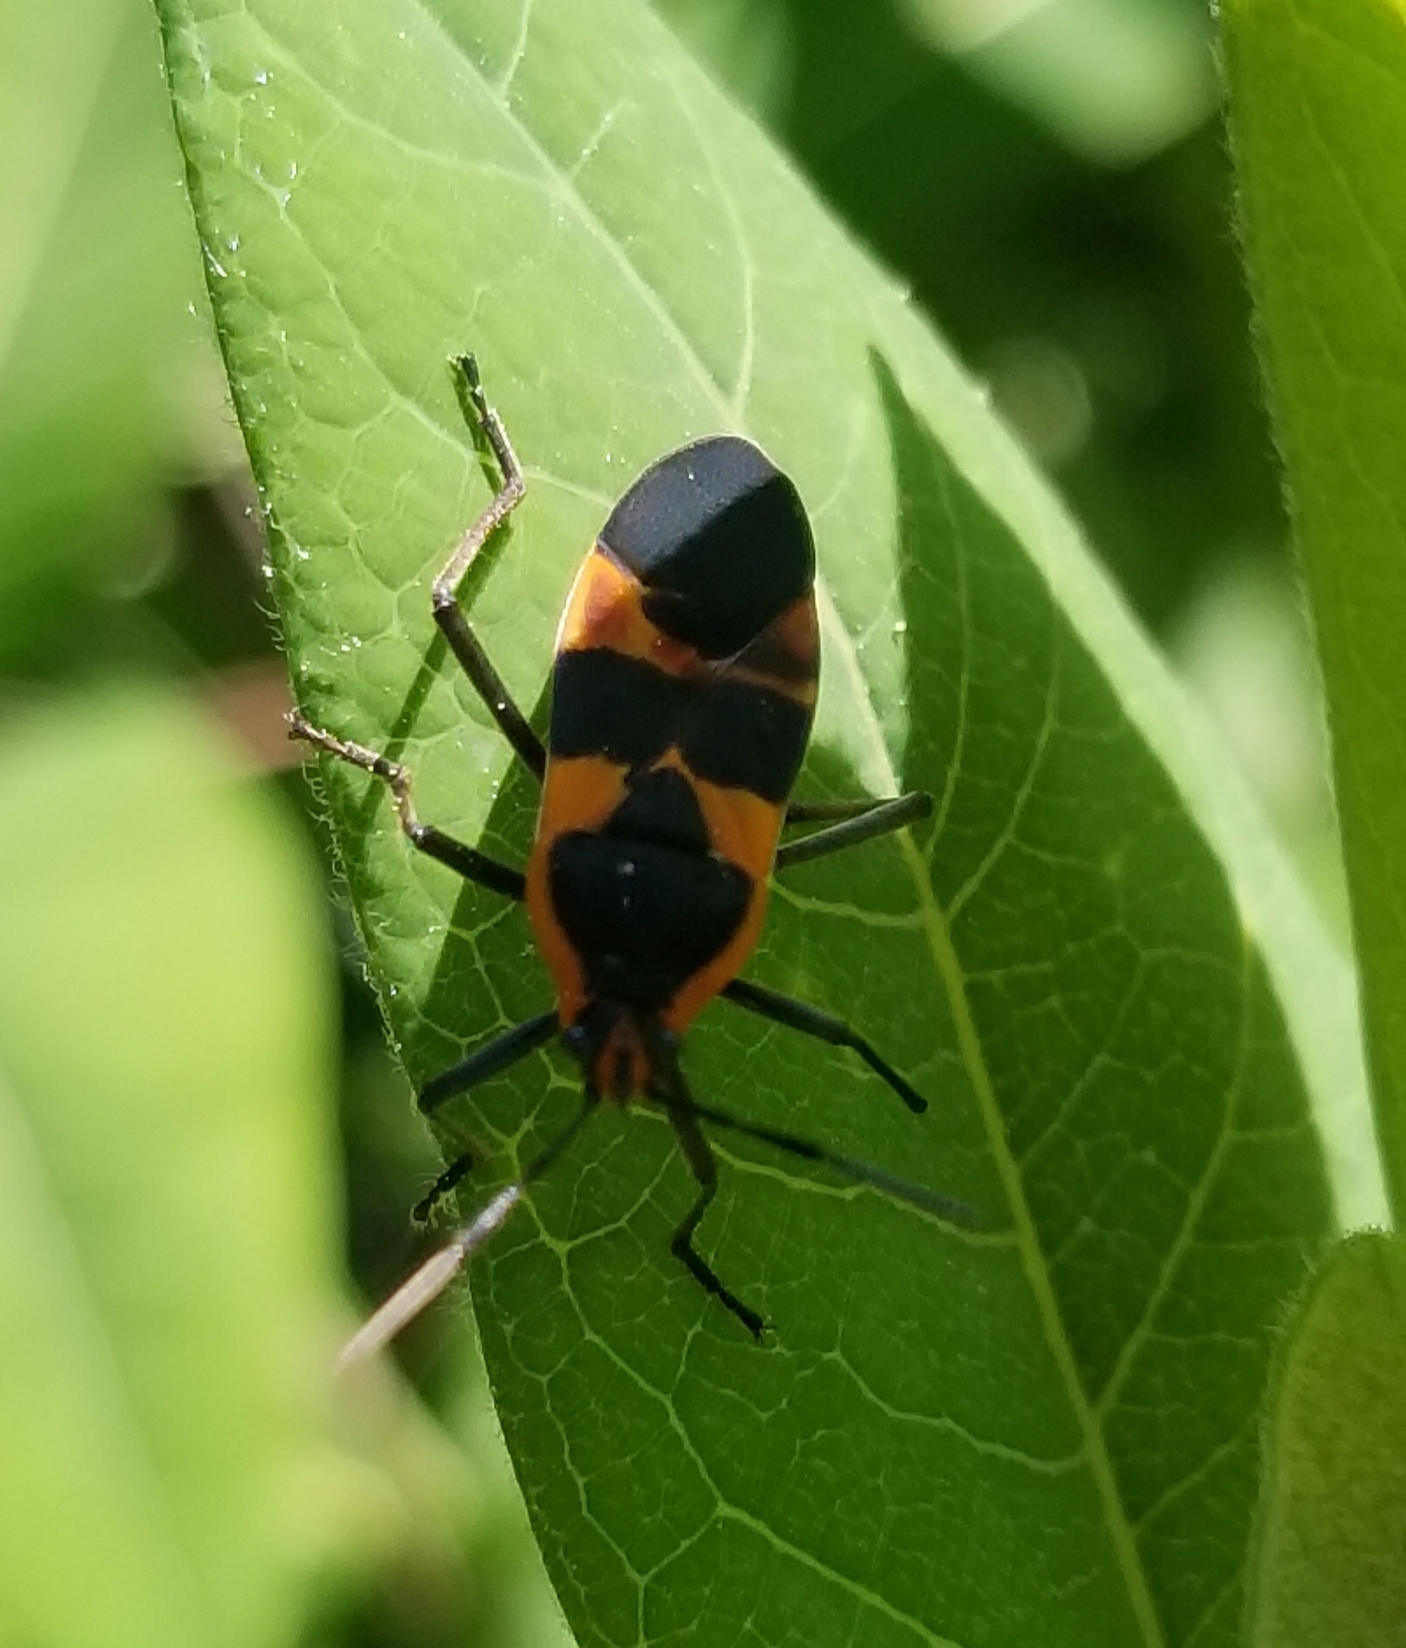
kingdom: Animalia
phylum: Arthropoda
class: Insecta
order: Hemiptera
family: Lygaeidae
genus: Oncopeltus
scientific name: Oncopeltus fasciatus
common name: Large milkweed bug
